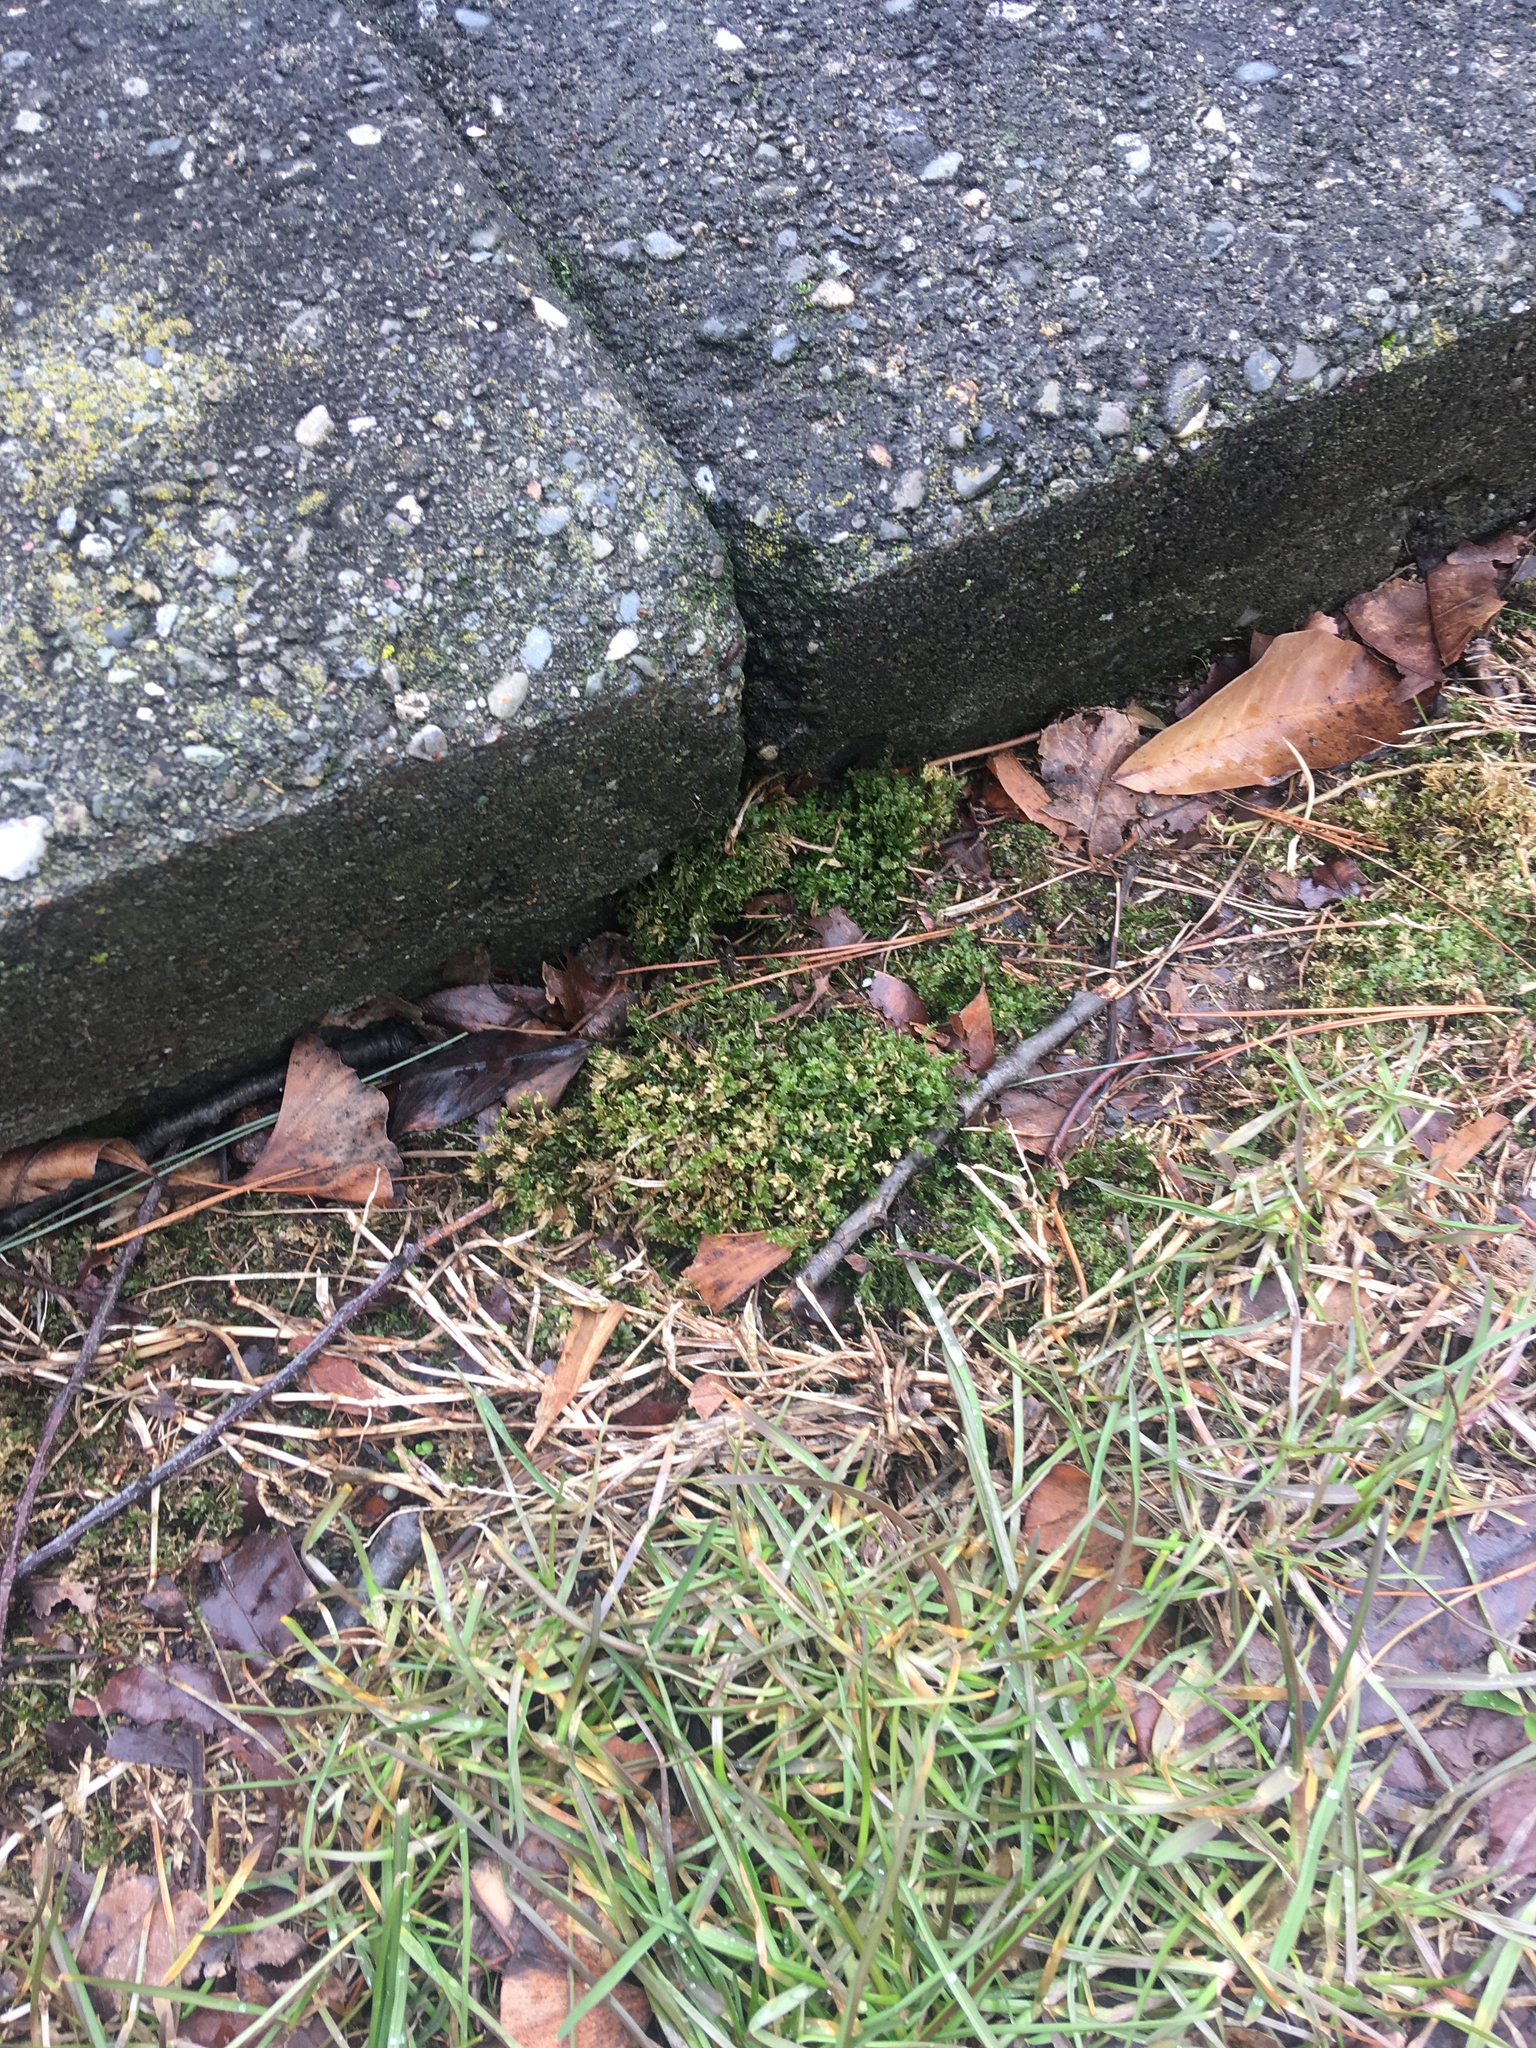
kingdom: Plantae
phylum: Bryophyta
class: Bryopsida
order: Bryales
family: Mniaceae
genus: Plagiomnium
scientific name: Plagiomnium cuspidatum
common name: Woodsy leafy moss
